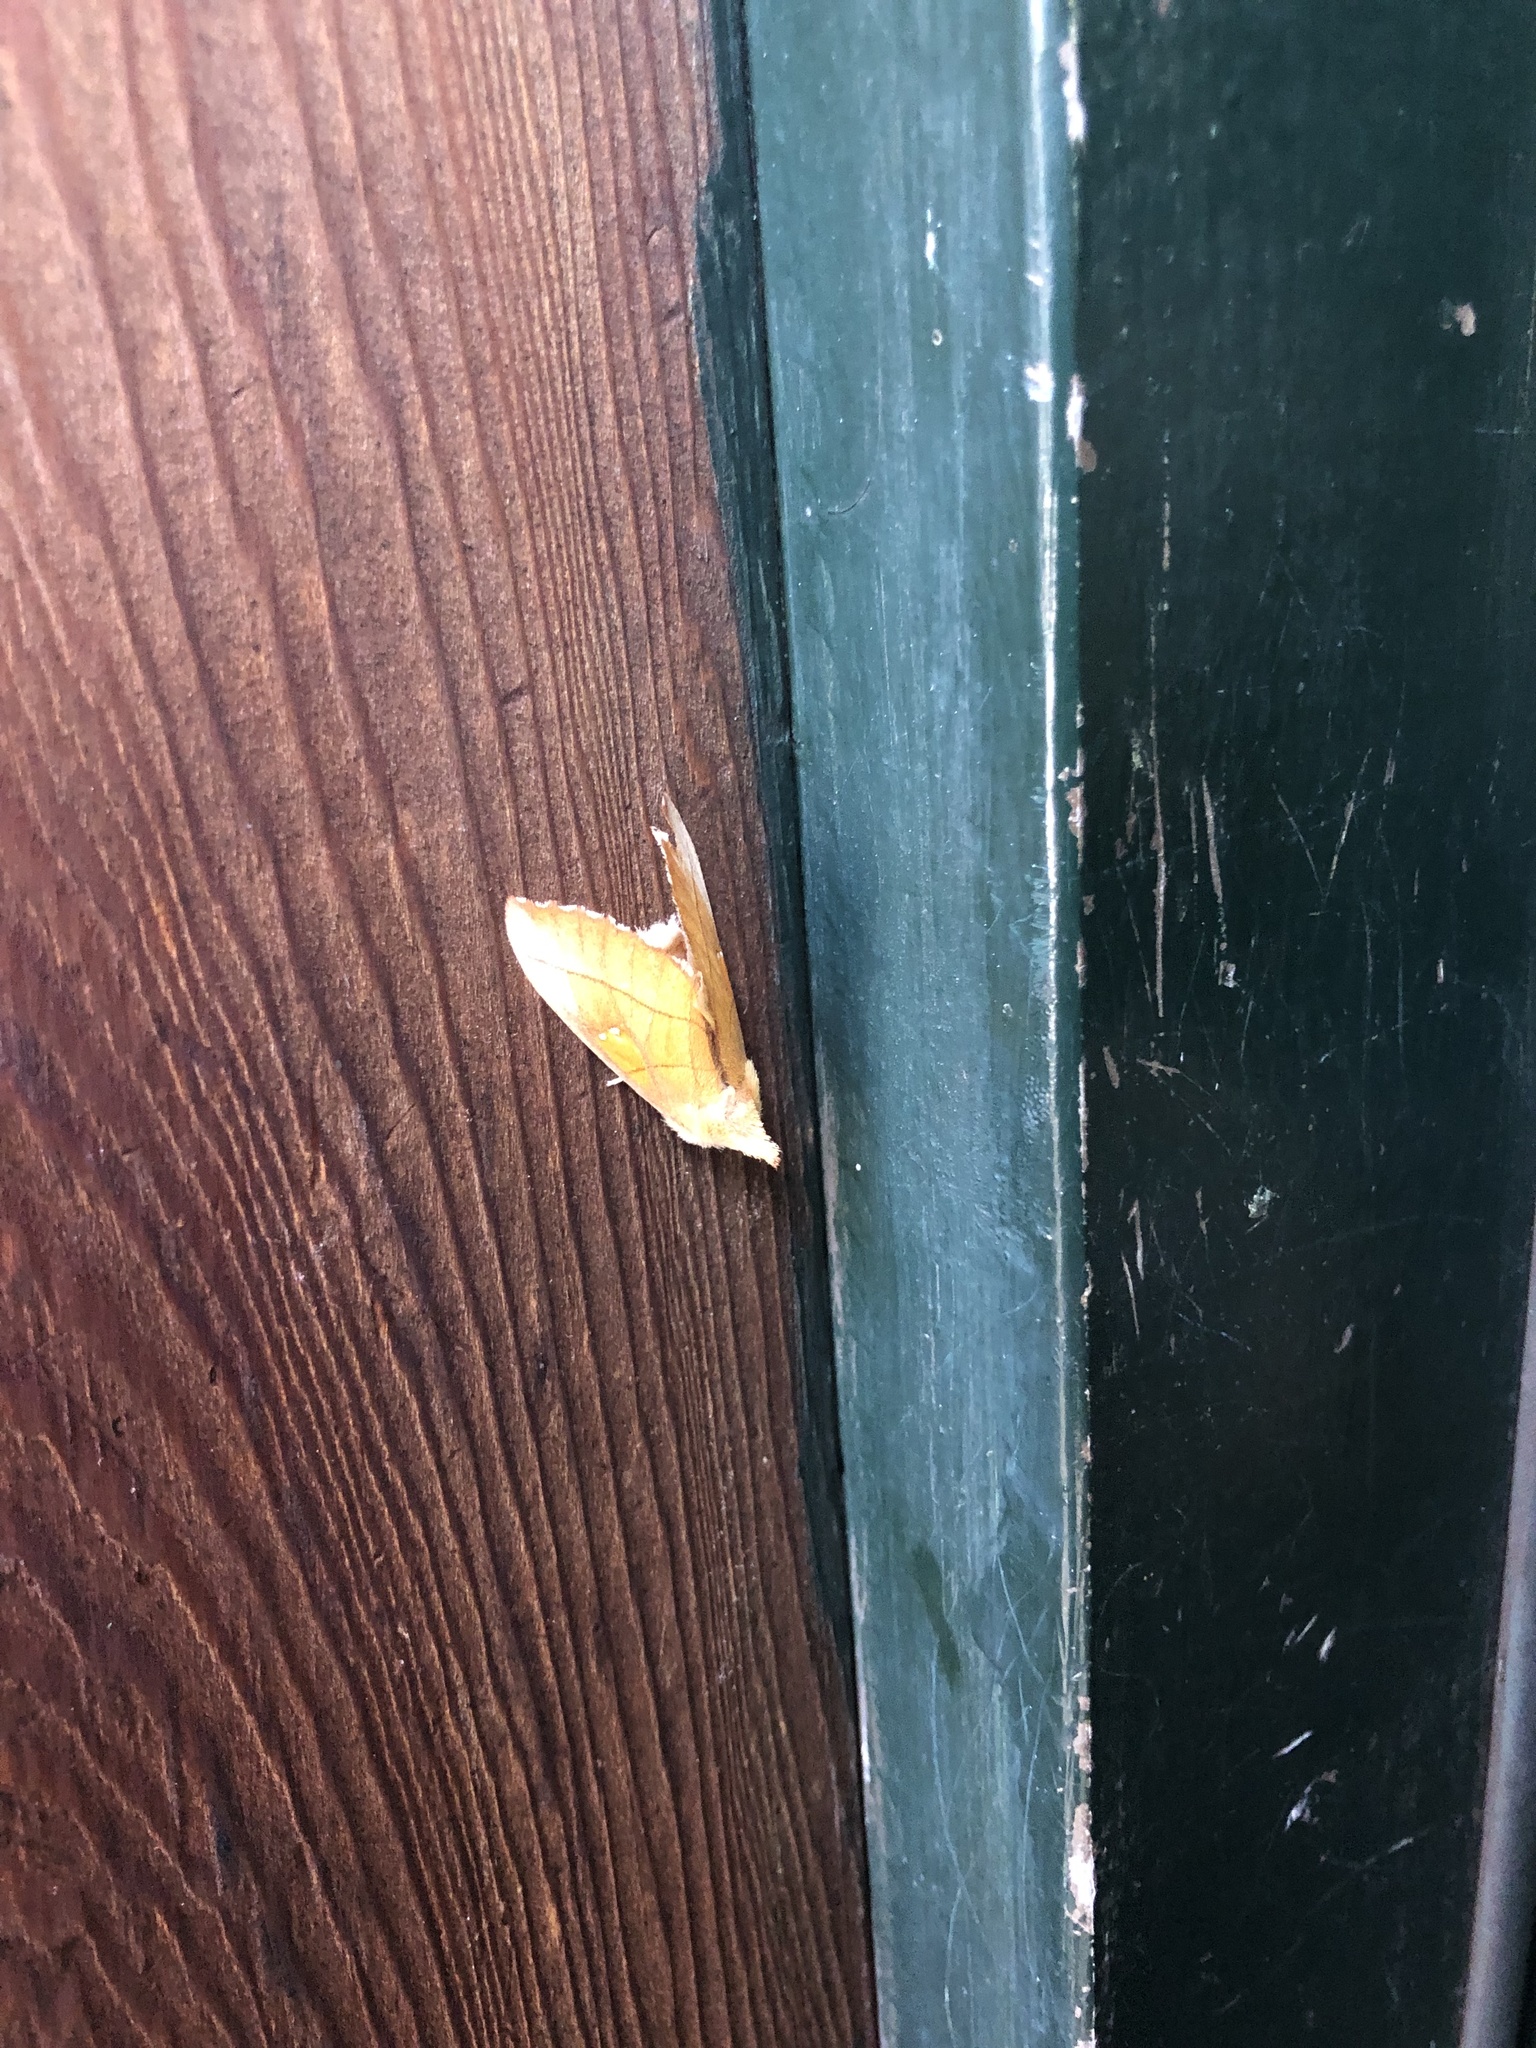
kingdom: Animalia
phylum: Arthropoda
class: Insecta
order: Lepidoptera
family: Notodontidae
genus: Nadata
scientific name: Nadata gibbosa
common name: White-dotted prominent
